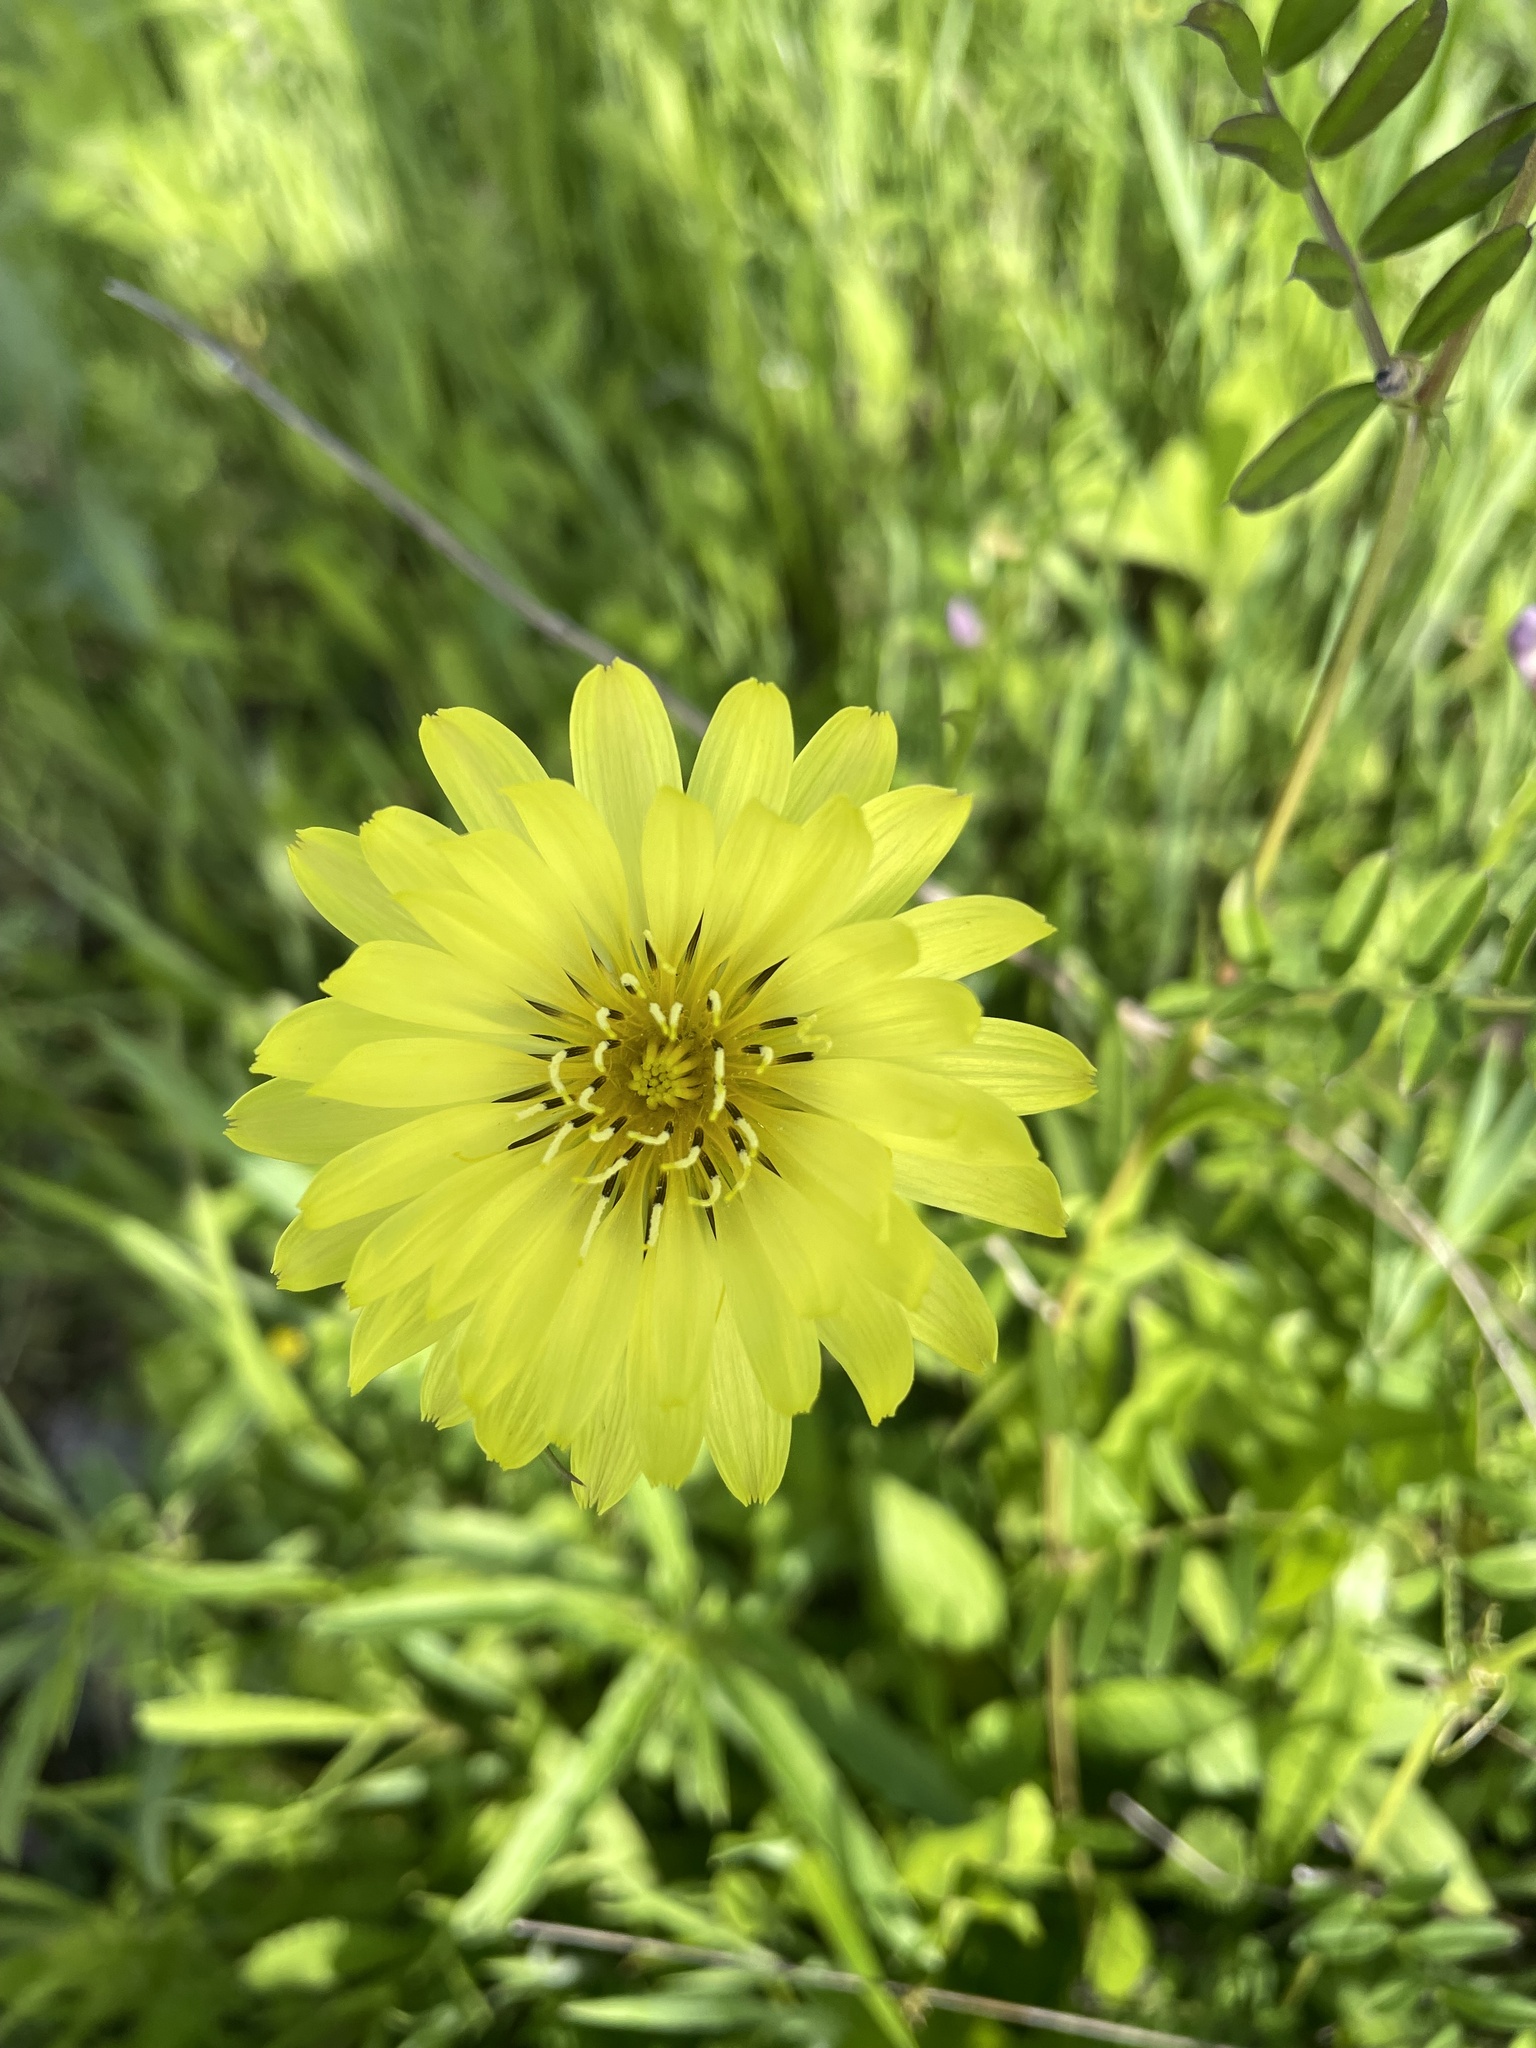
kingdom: Plantae
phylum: Tracheophyta
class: Magnoliopsida
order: Asterales
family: Asteraceae
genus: Pyrrhopappus
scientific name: Pyrrhopappus pauciflorus
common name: Texas false dandelion
